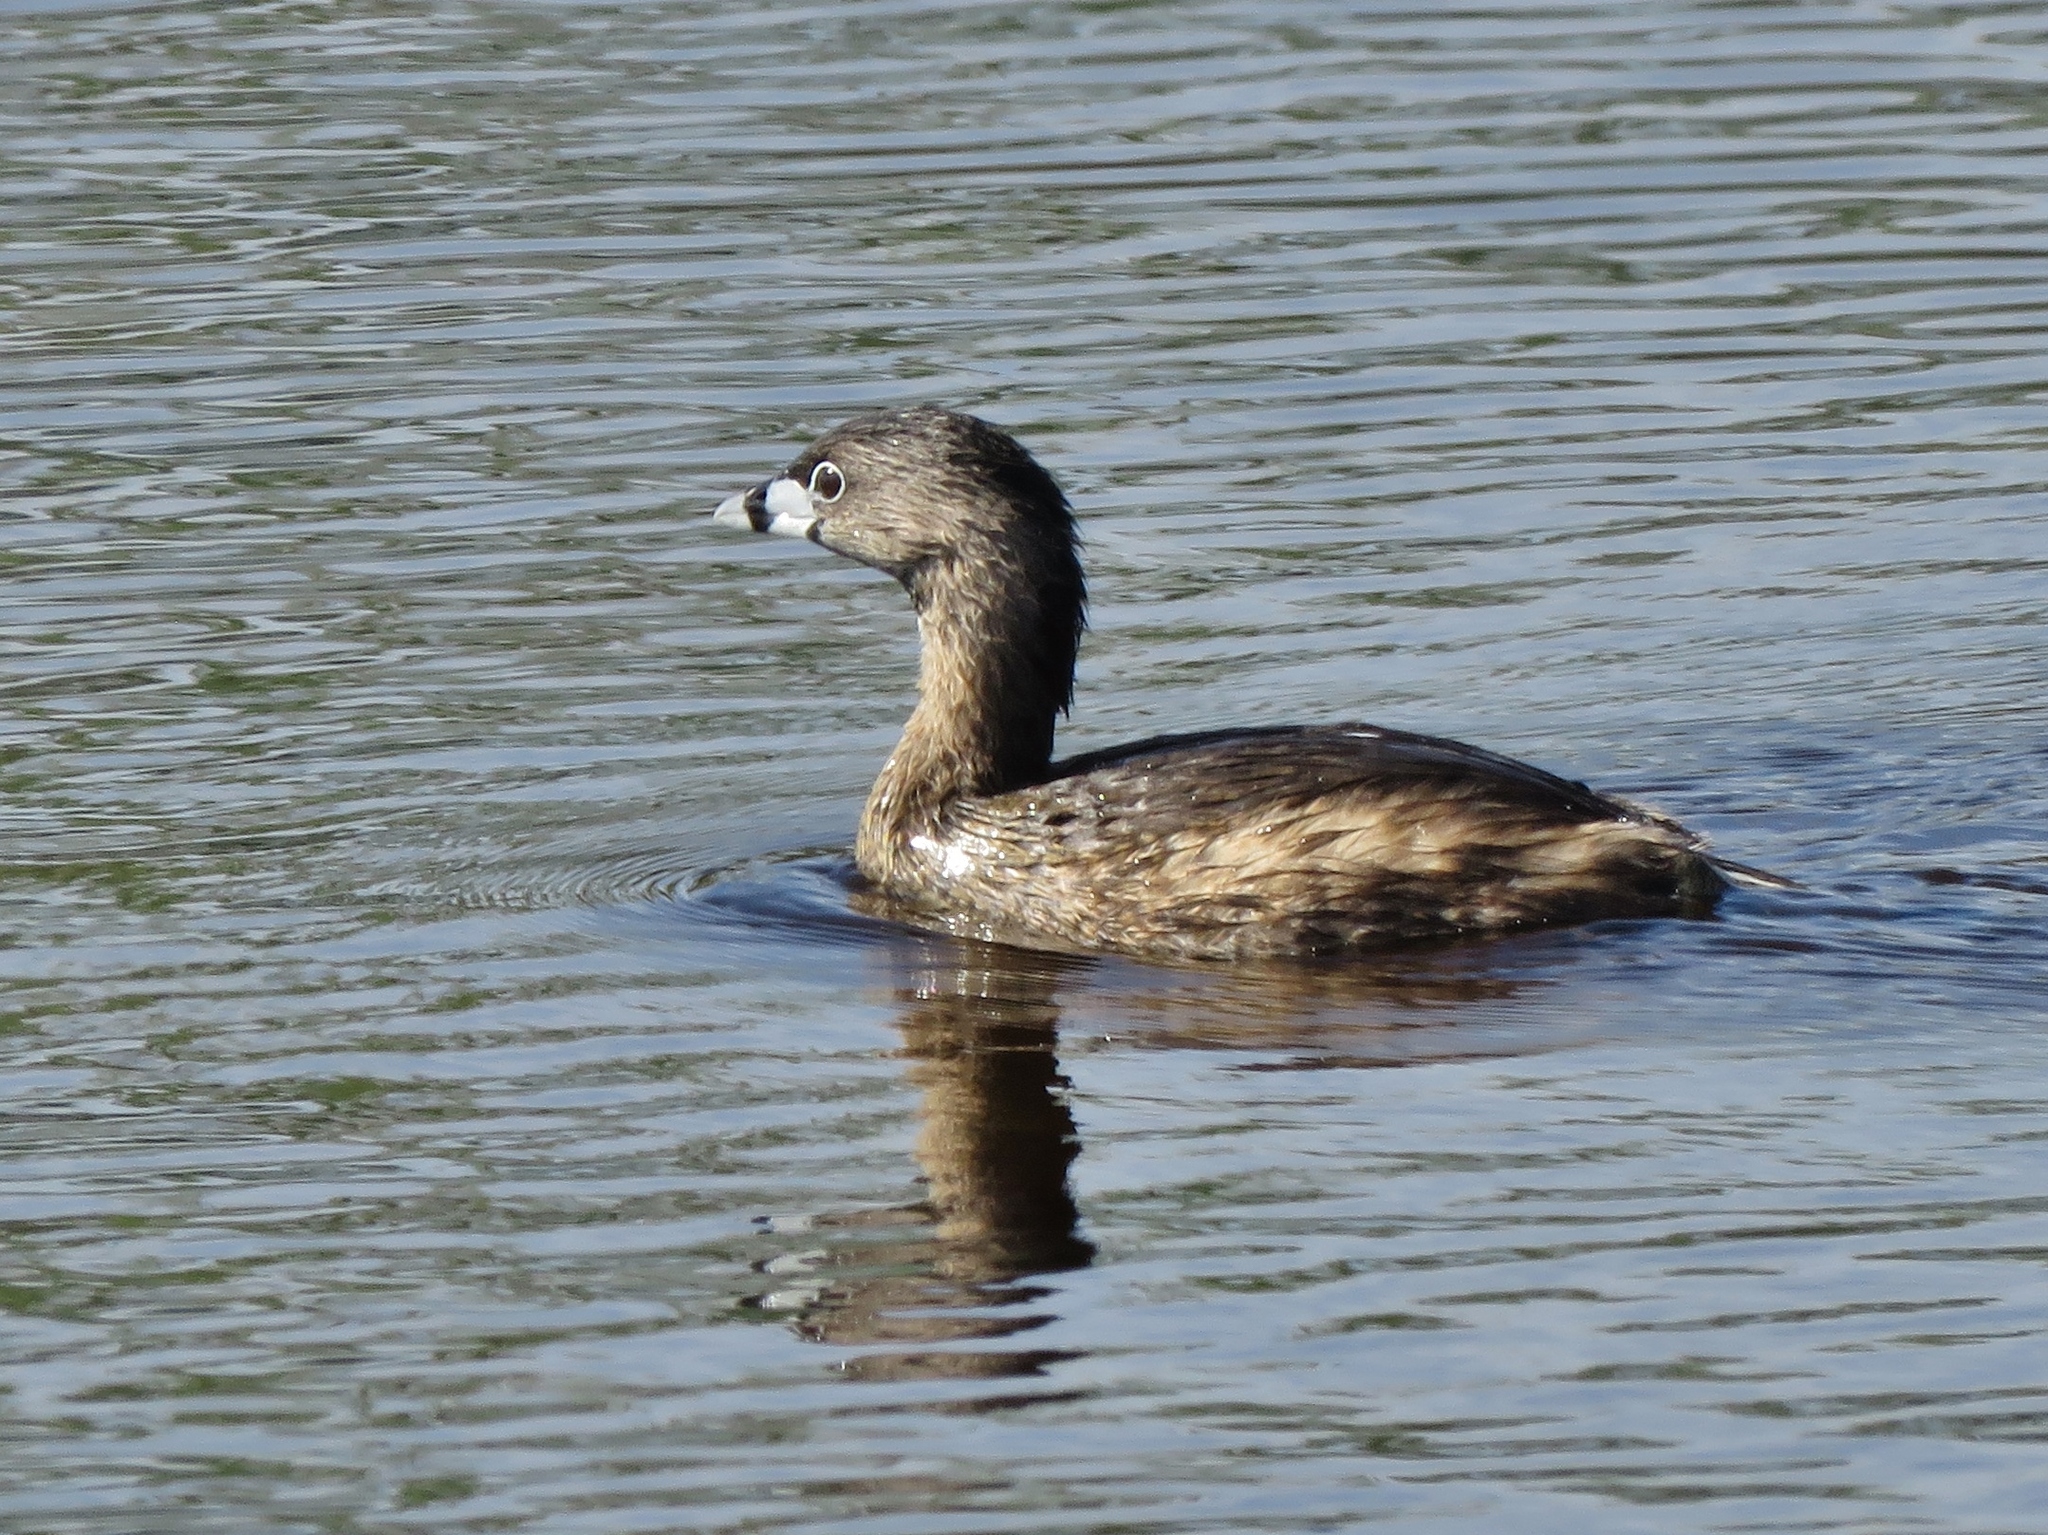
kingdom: Animalia
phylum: Chordata
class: Aves
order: Podicipediformes
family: Podicipedidae
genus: Podilymbus
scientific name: Podilymbus podiceps
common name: Pied-billed grebe
